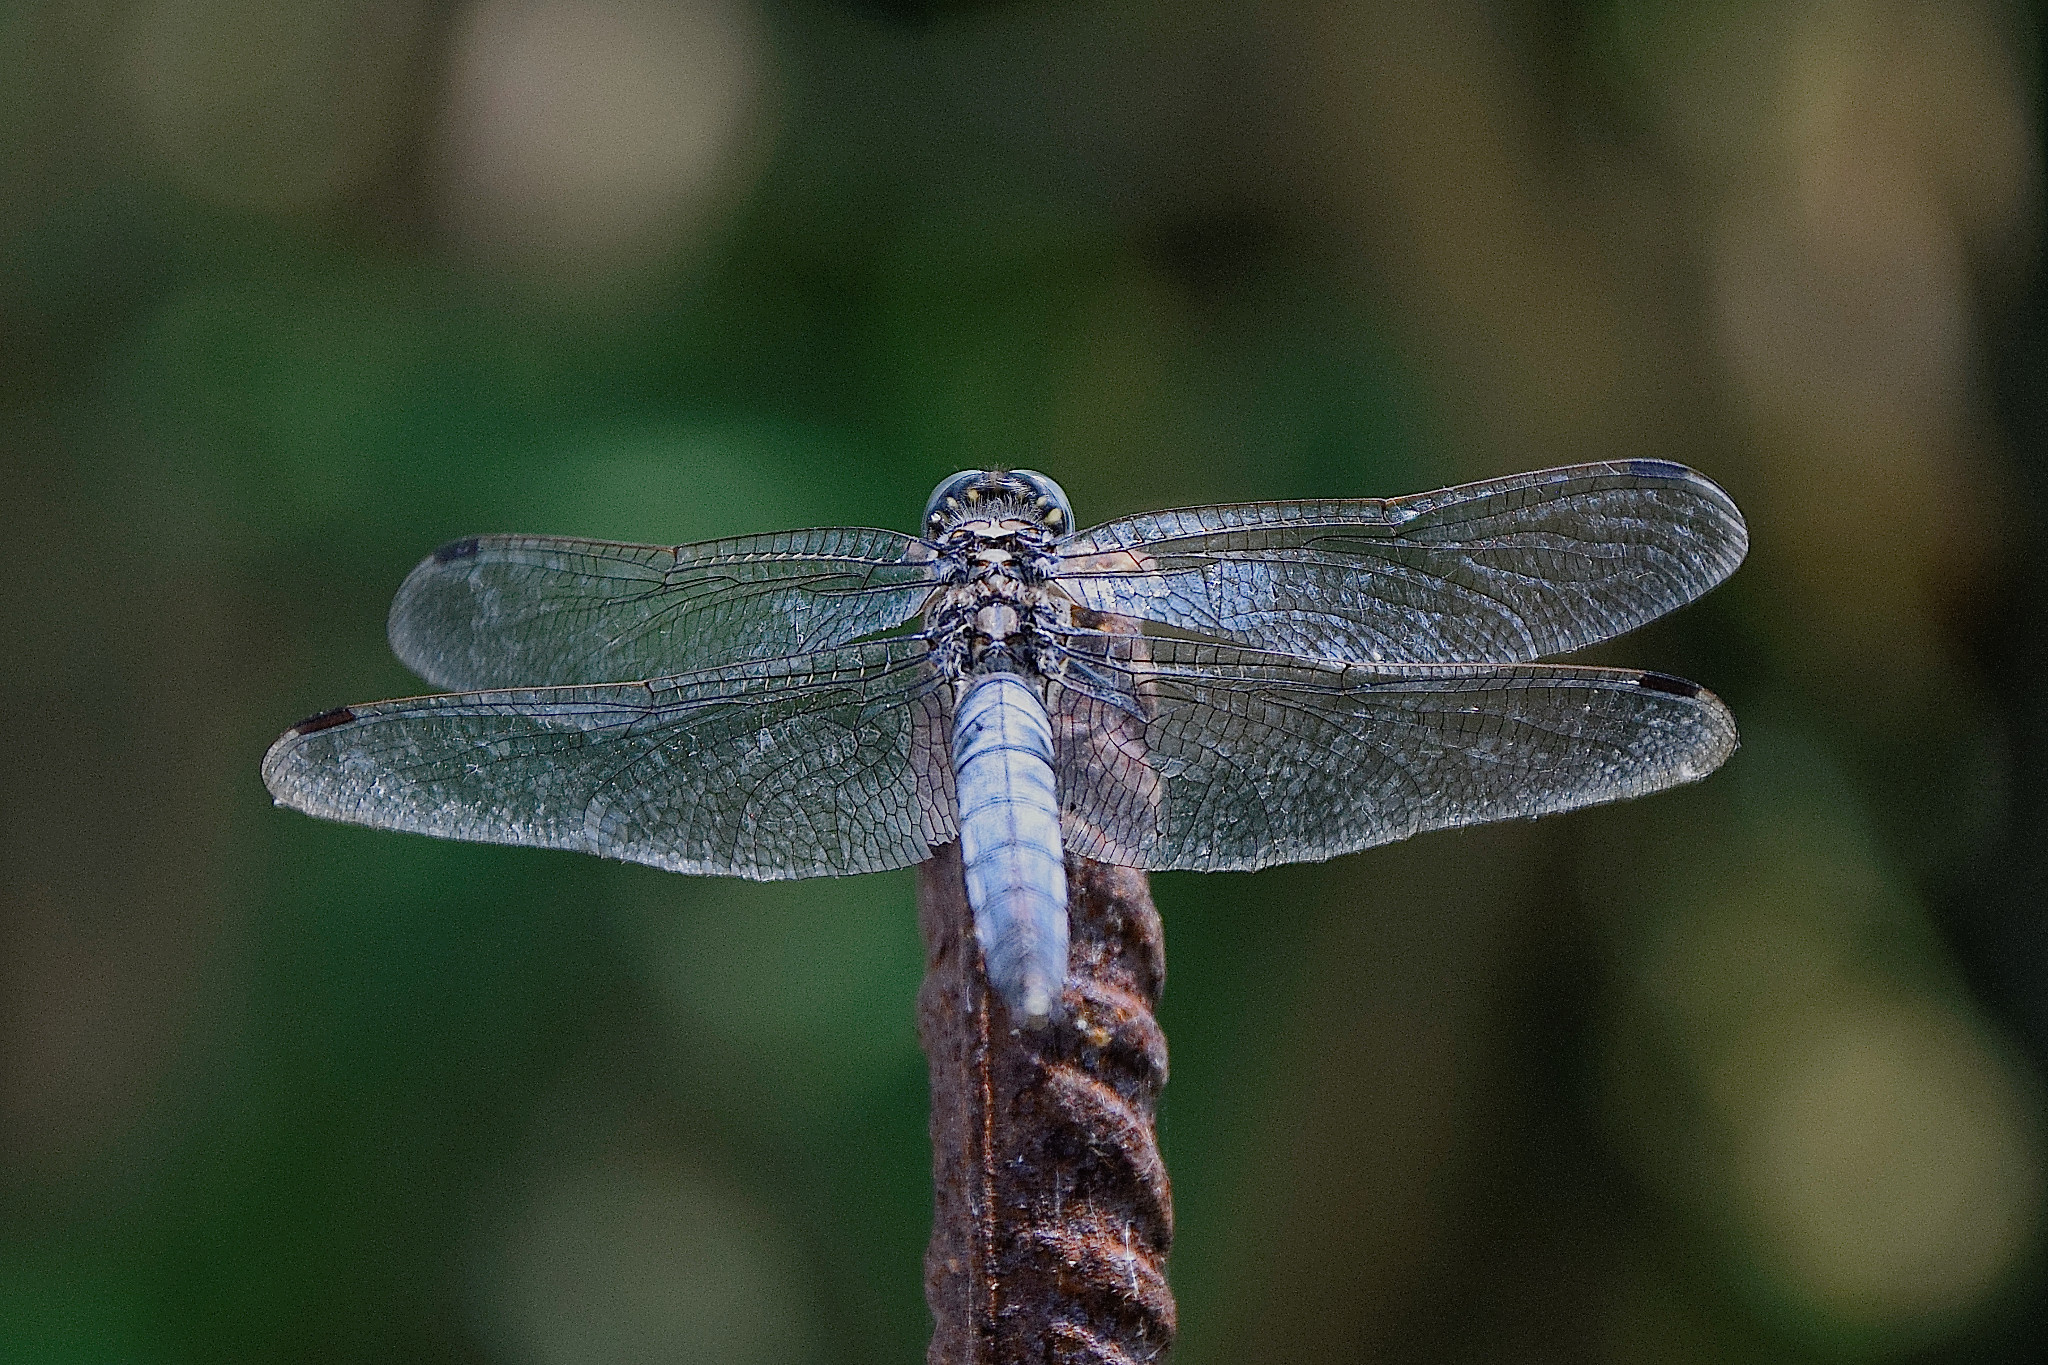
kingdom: Animalia
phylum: Arthropoda
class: Insecta
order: Odonata
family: Libellulidae
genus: Orthetrum
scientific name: Orthetrum cancellatum
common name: Black-tailed skimmer
